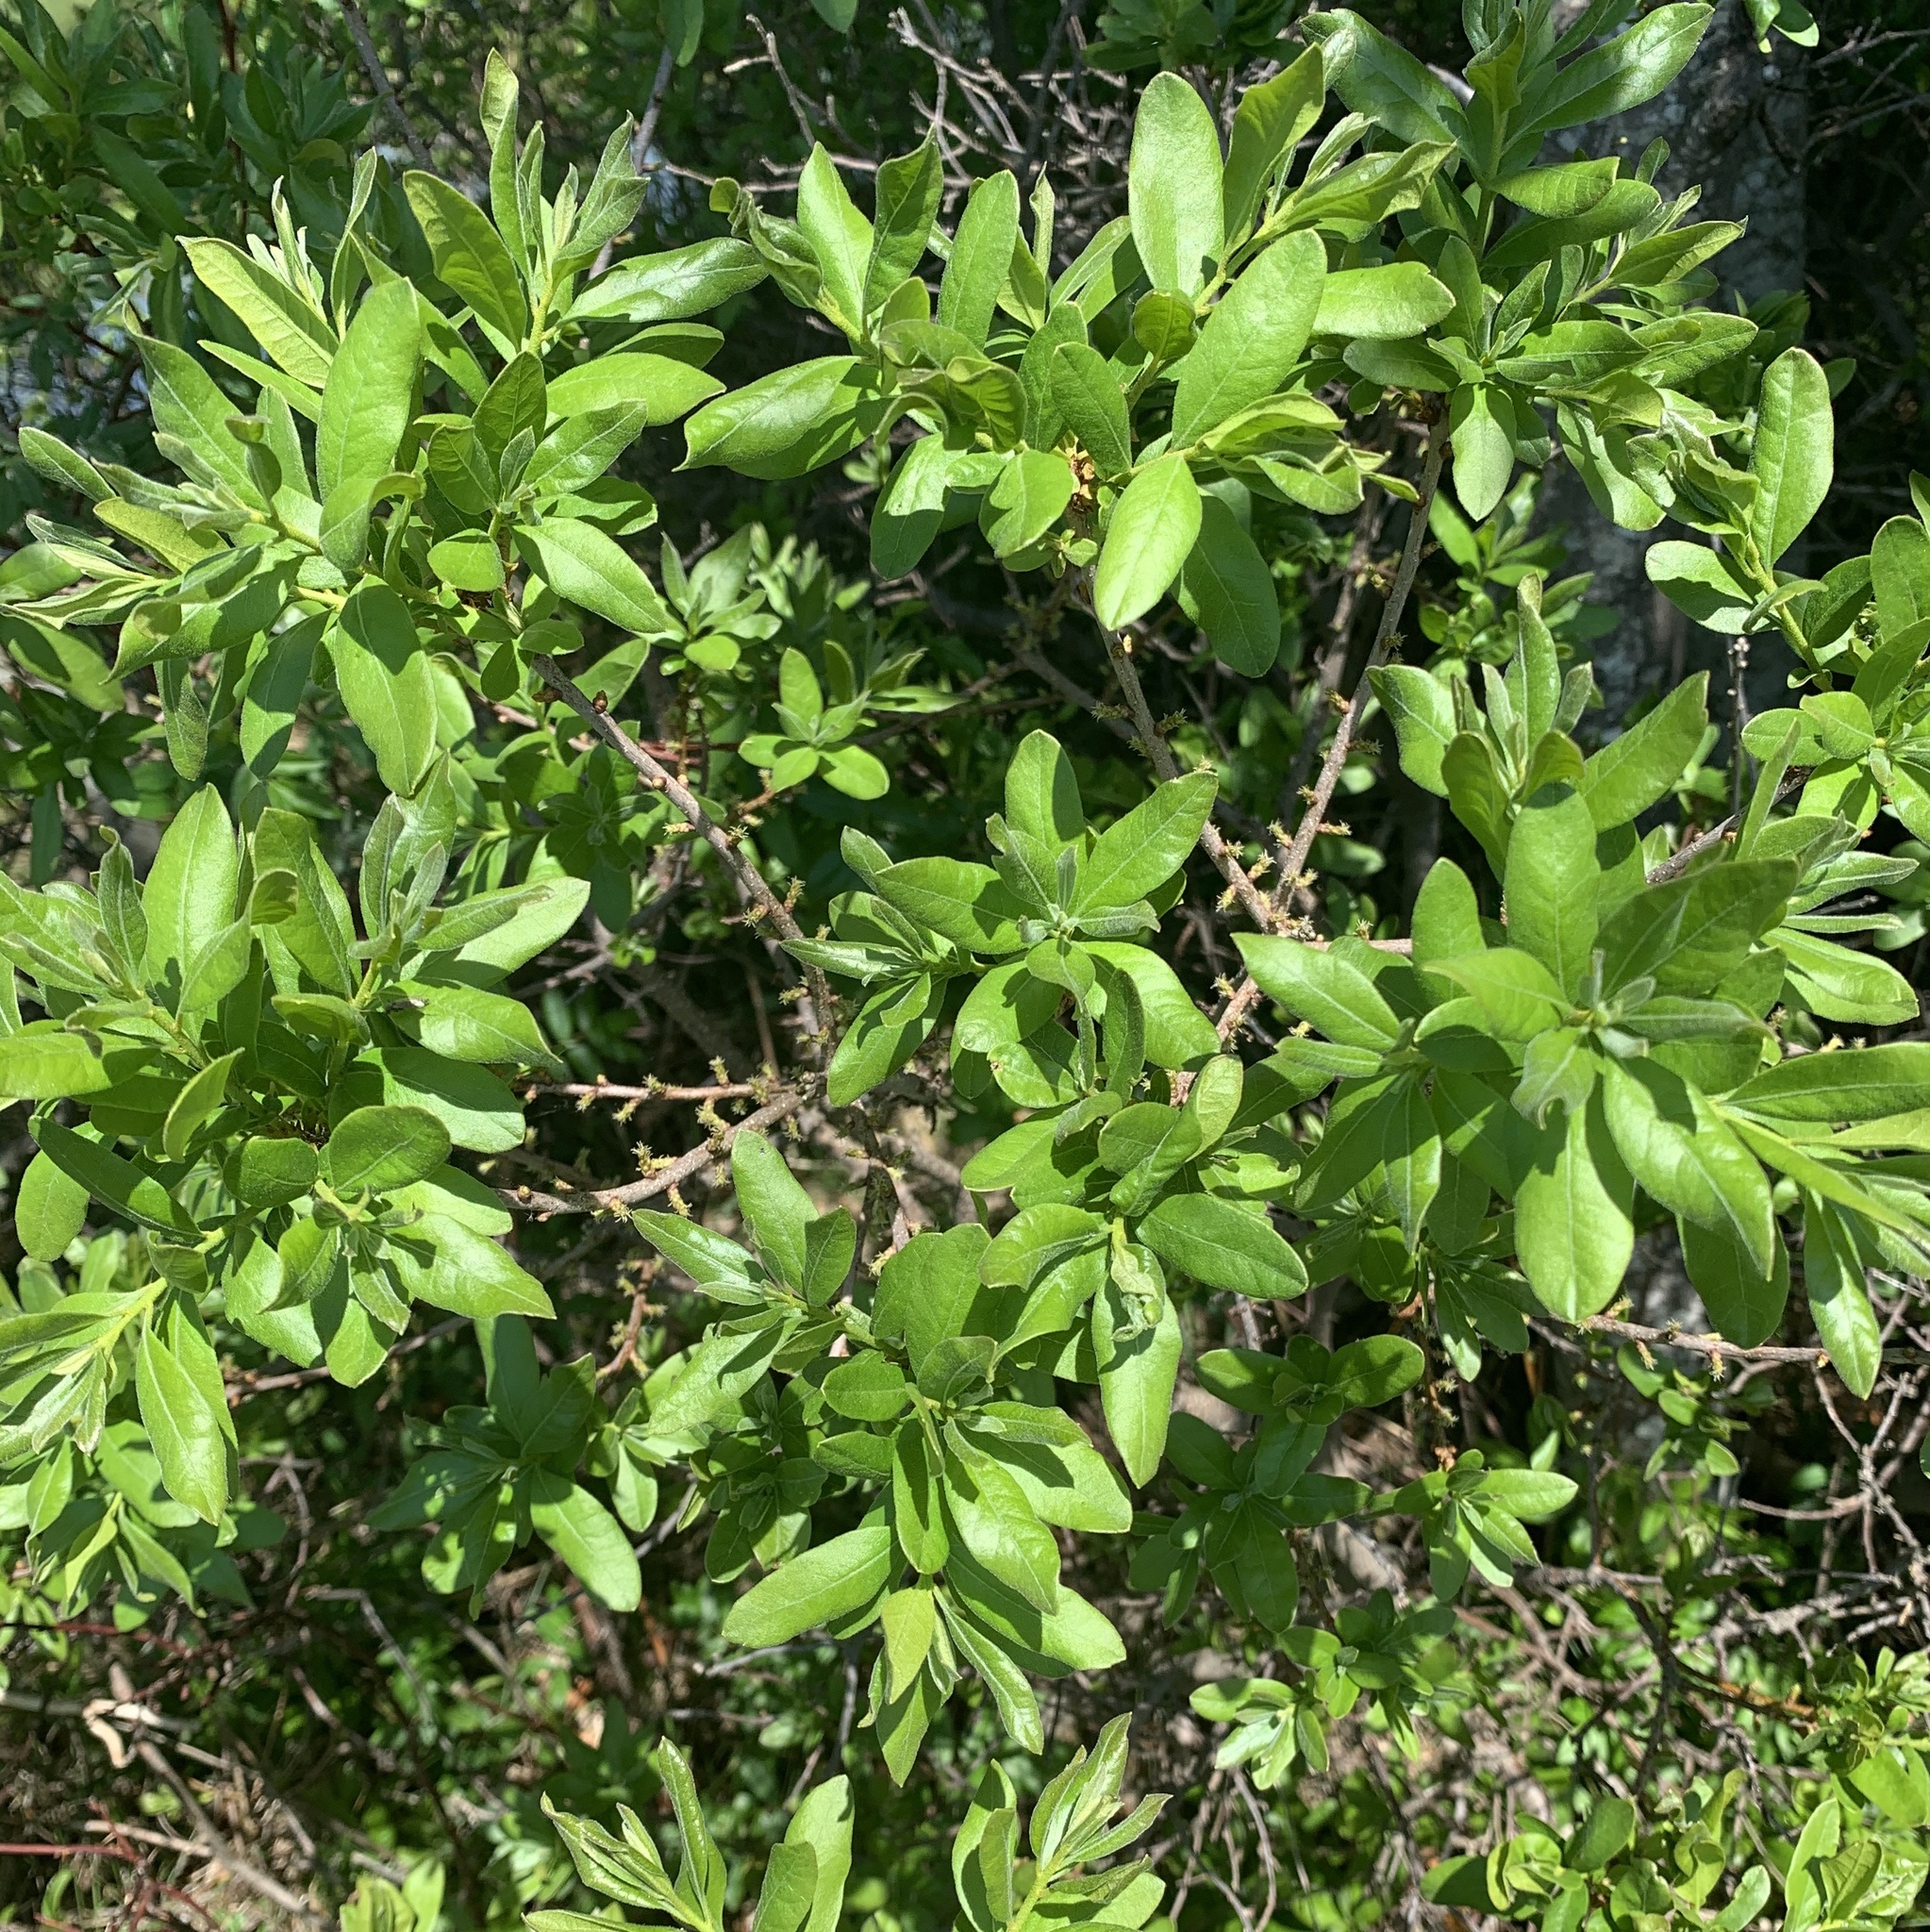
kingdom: Plantae
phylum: Tracheophyta
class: Magnoliopsida
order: Fagales
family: Myricaceae
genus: Morella
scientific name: Morella pensylvanica
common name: Northern bayberry
